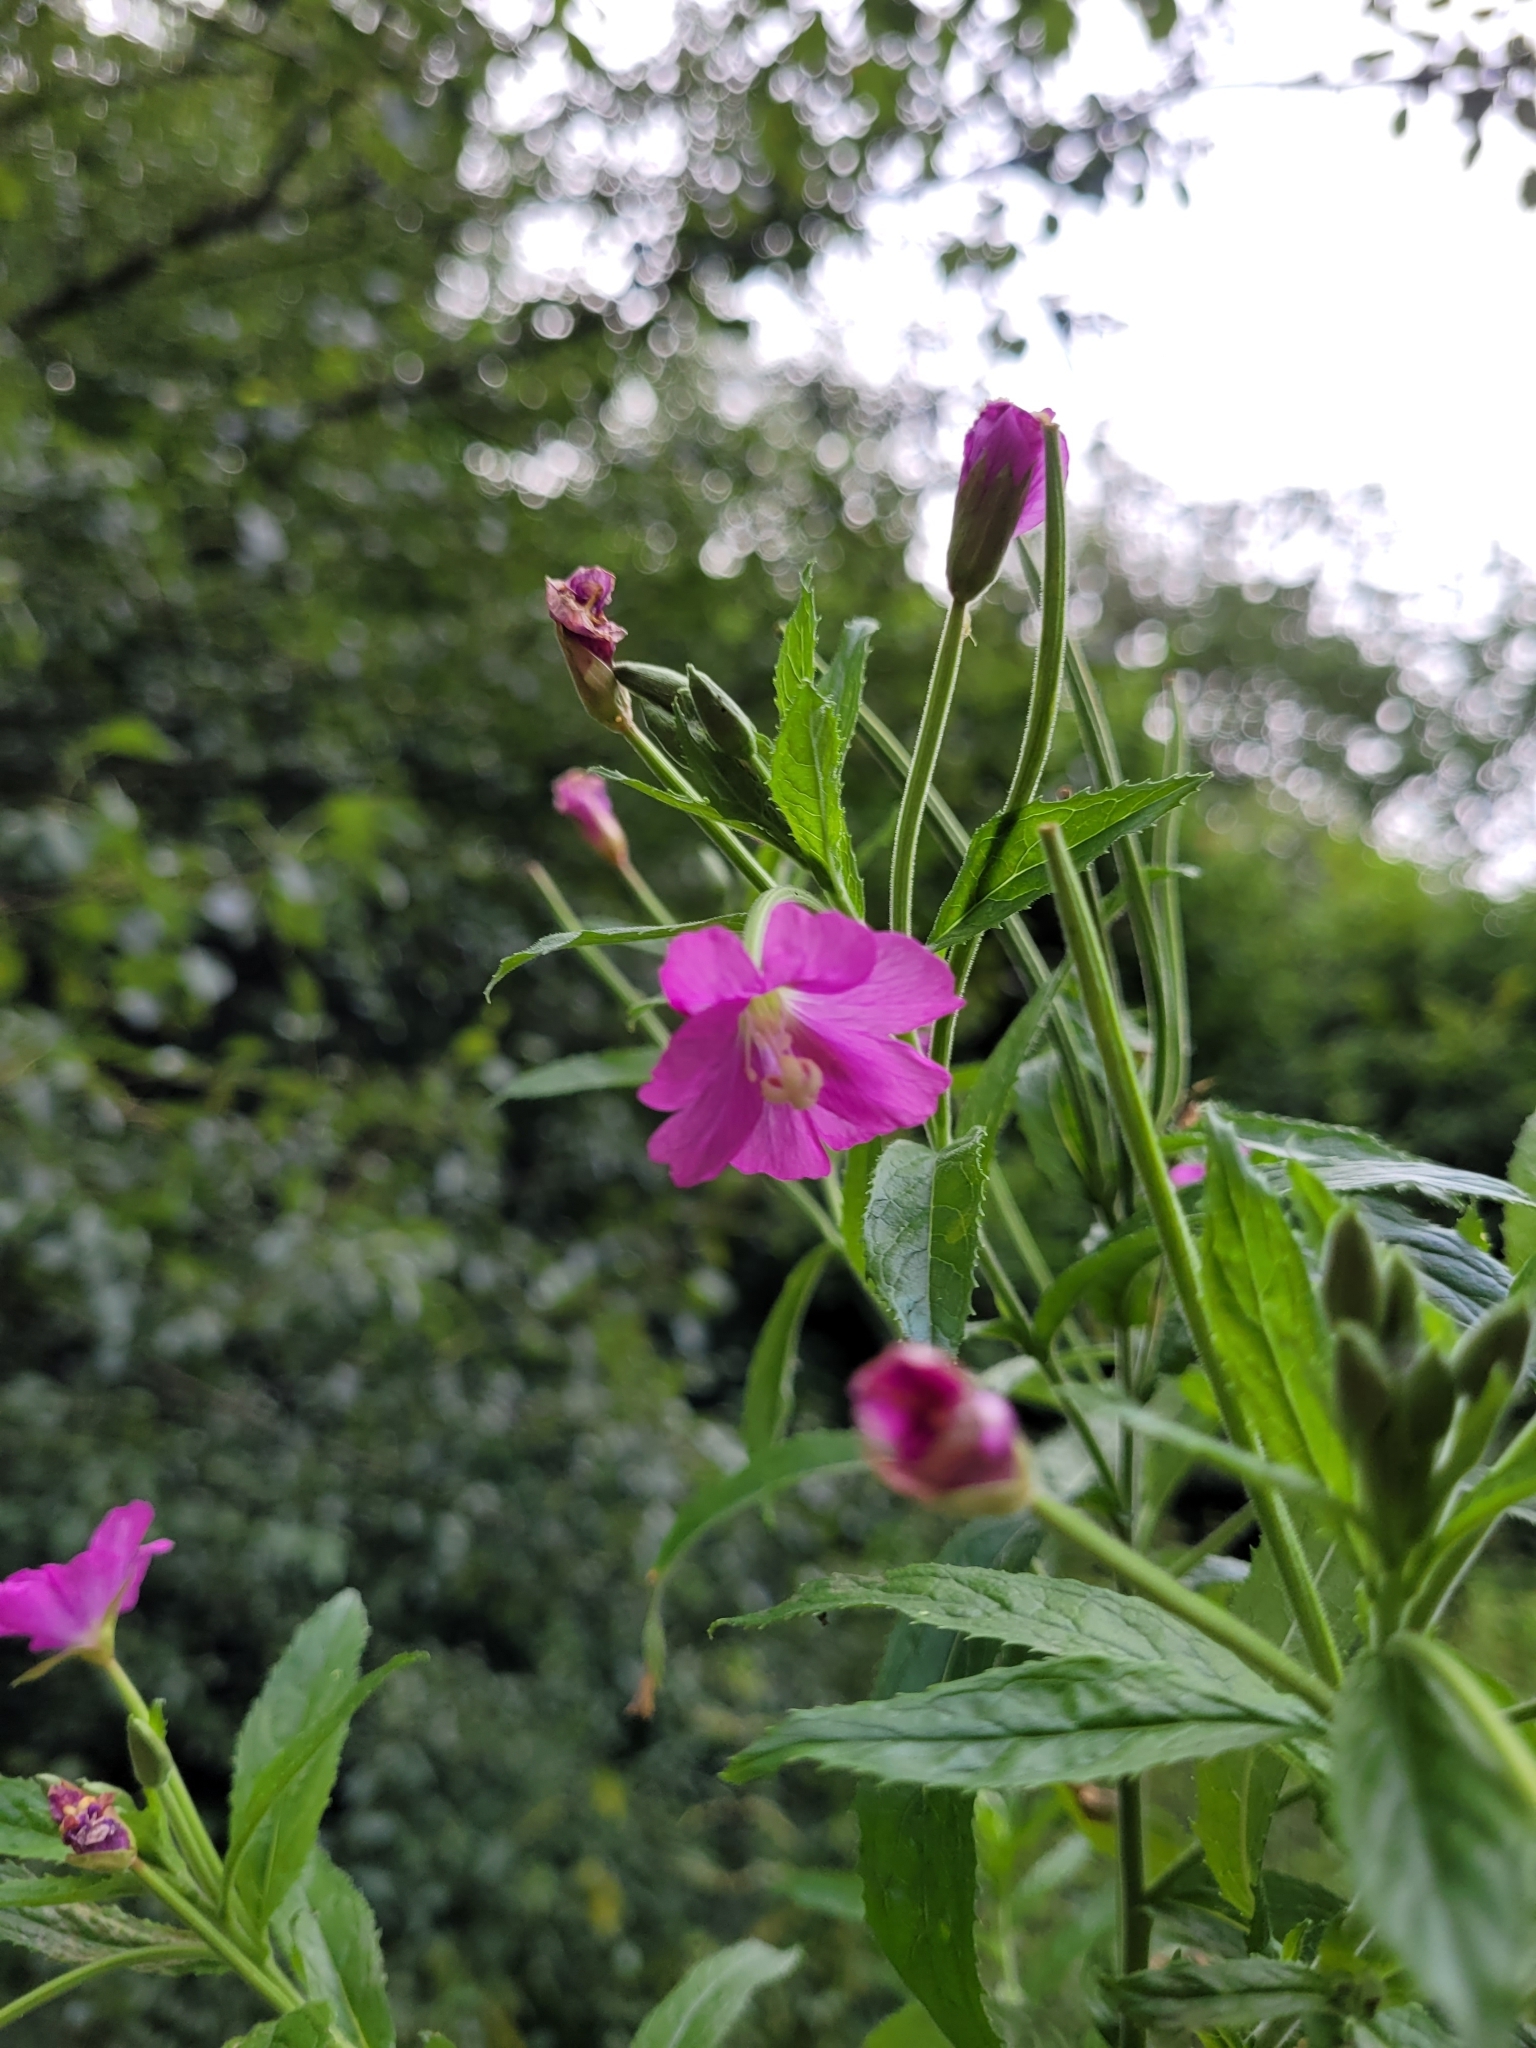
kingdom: Plantae
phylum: Tracheophyta
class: Magnoliopsida
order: Myrtales
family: Onagraceae
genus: Epilobium
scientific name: Epilobium hirsutum
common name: Great willowherb
